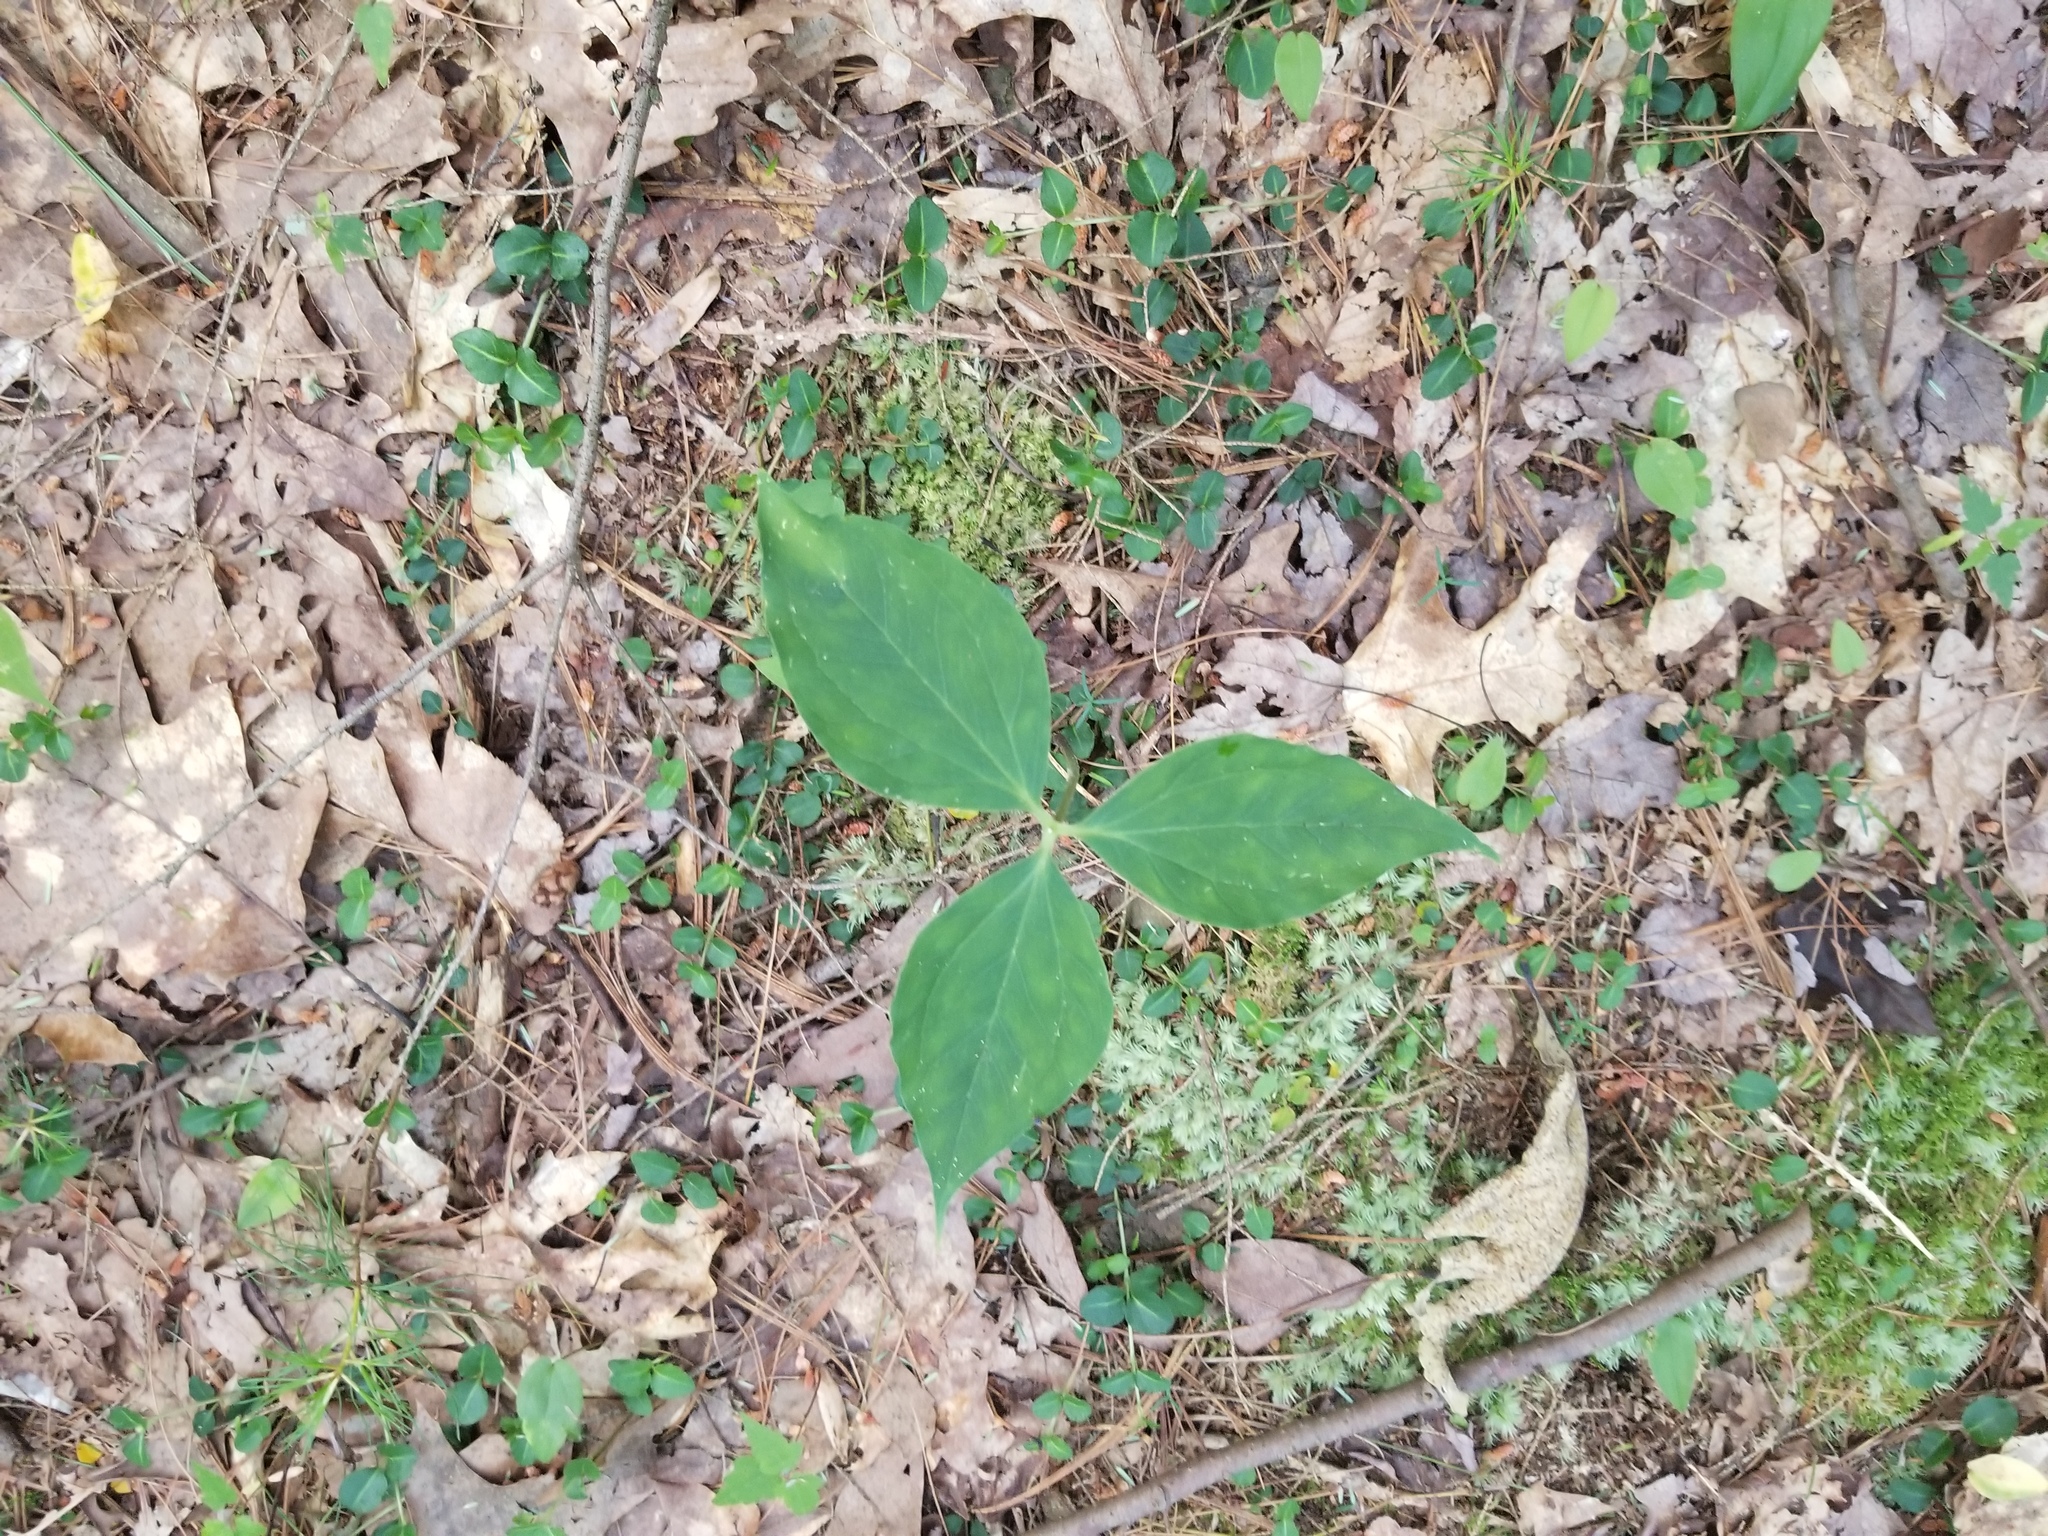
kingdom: Plantae
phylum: Tracheophyta
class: Liliopsida
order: Liliales
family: Melanthiaceae
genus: Trillium
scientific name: Trillium undulatum
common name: Paint trillium
